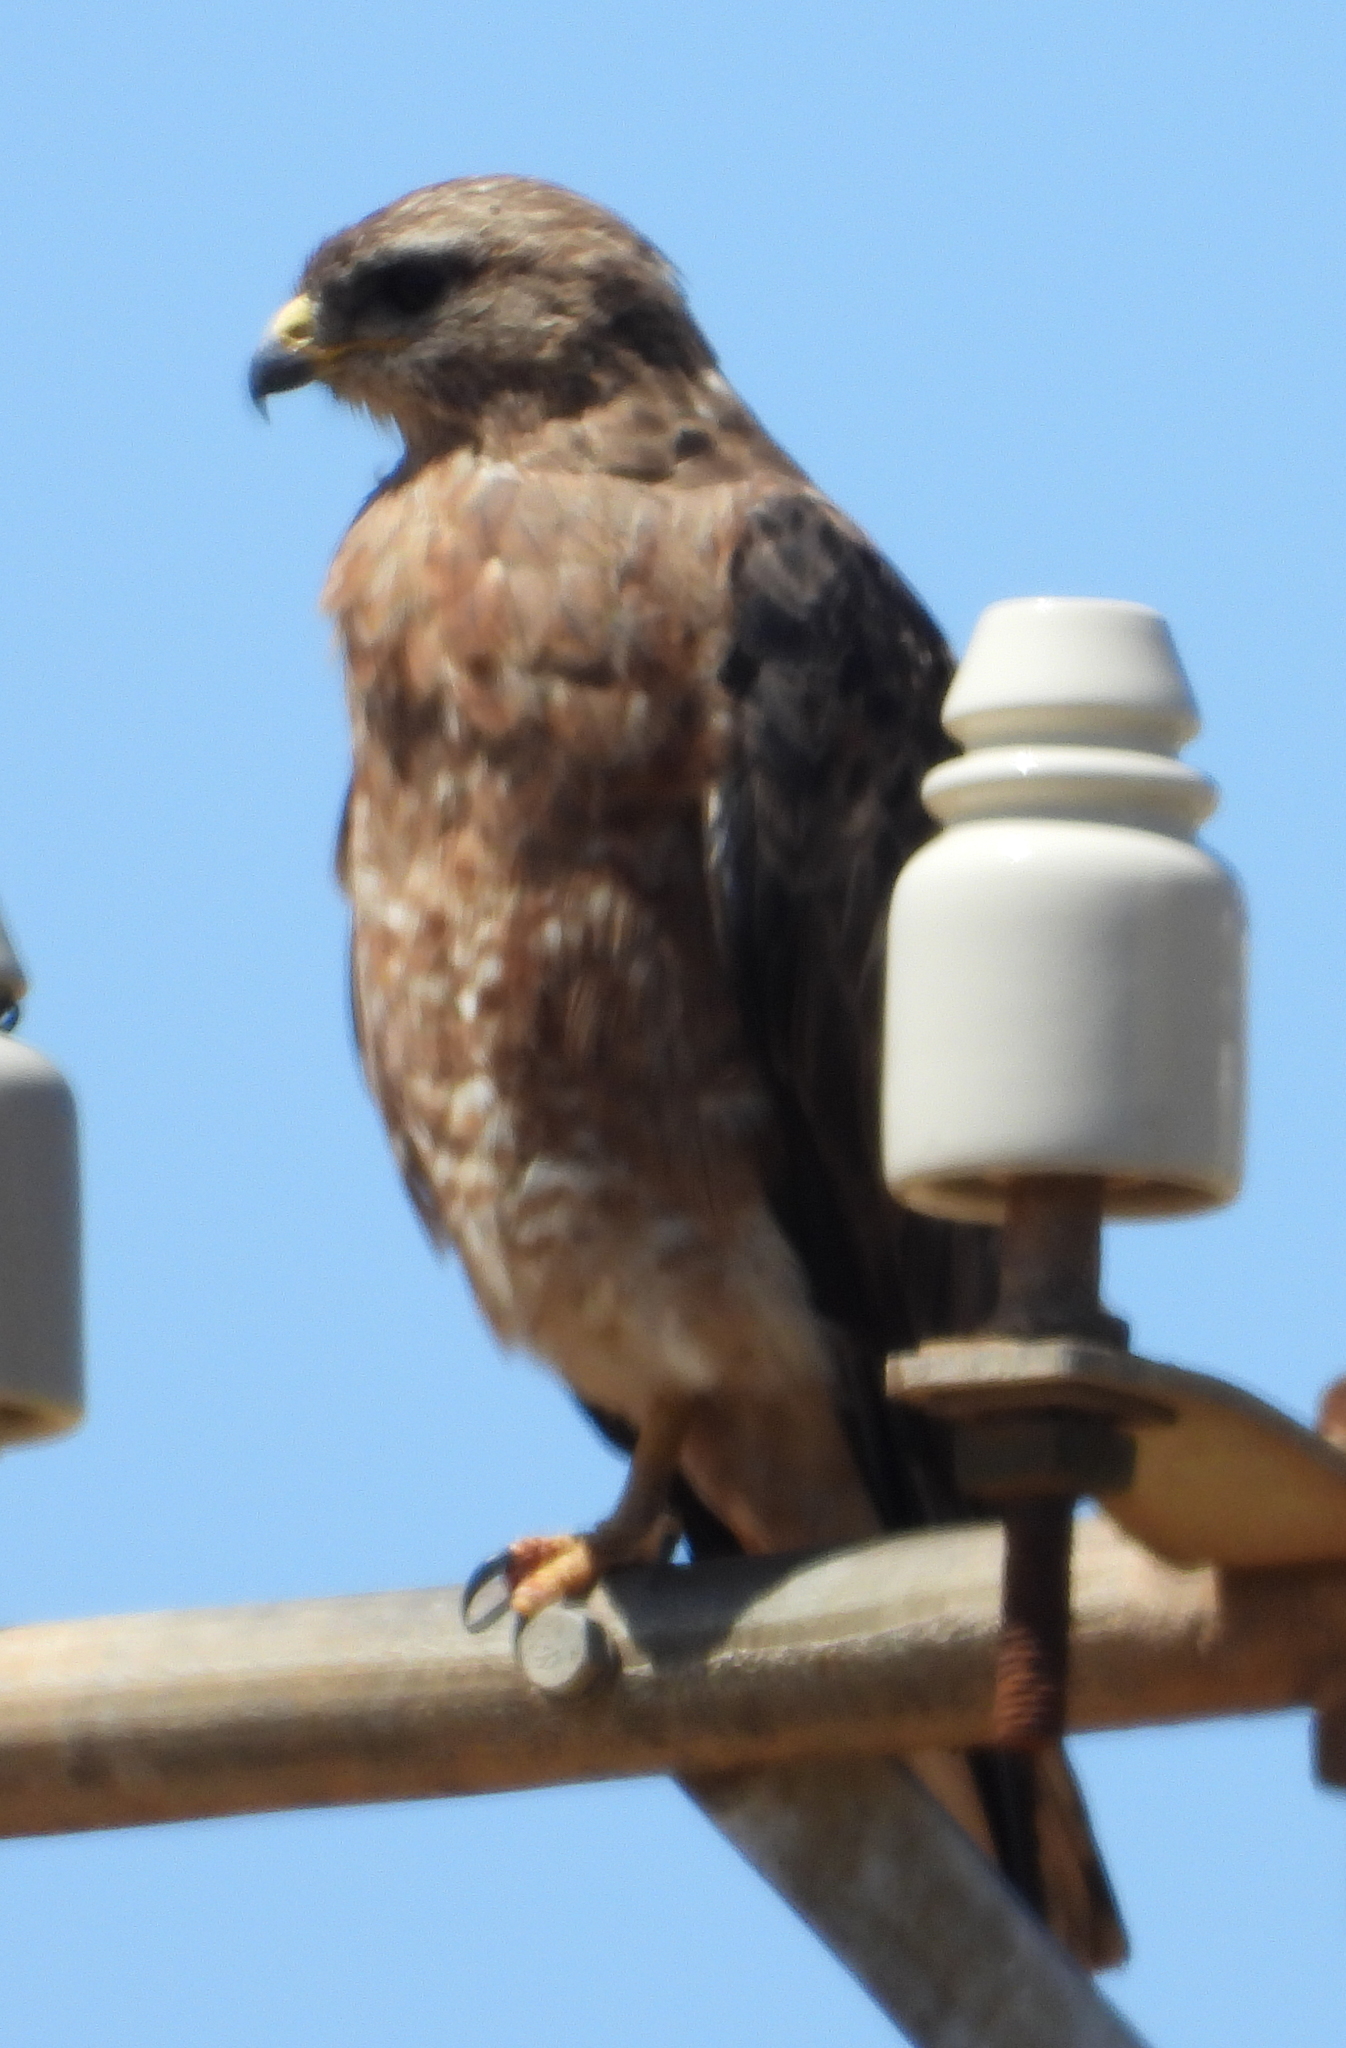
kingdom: Animalia
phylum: Chordata
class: Aves
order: Accipitriformes
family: Accipitridae
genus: Buteo
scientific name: Buteo buteo
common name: Common buzzard
